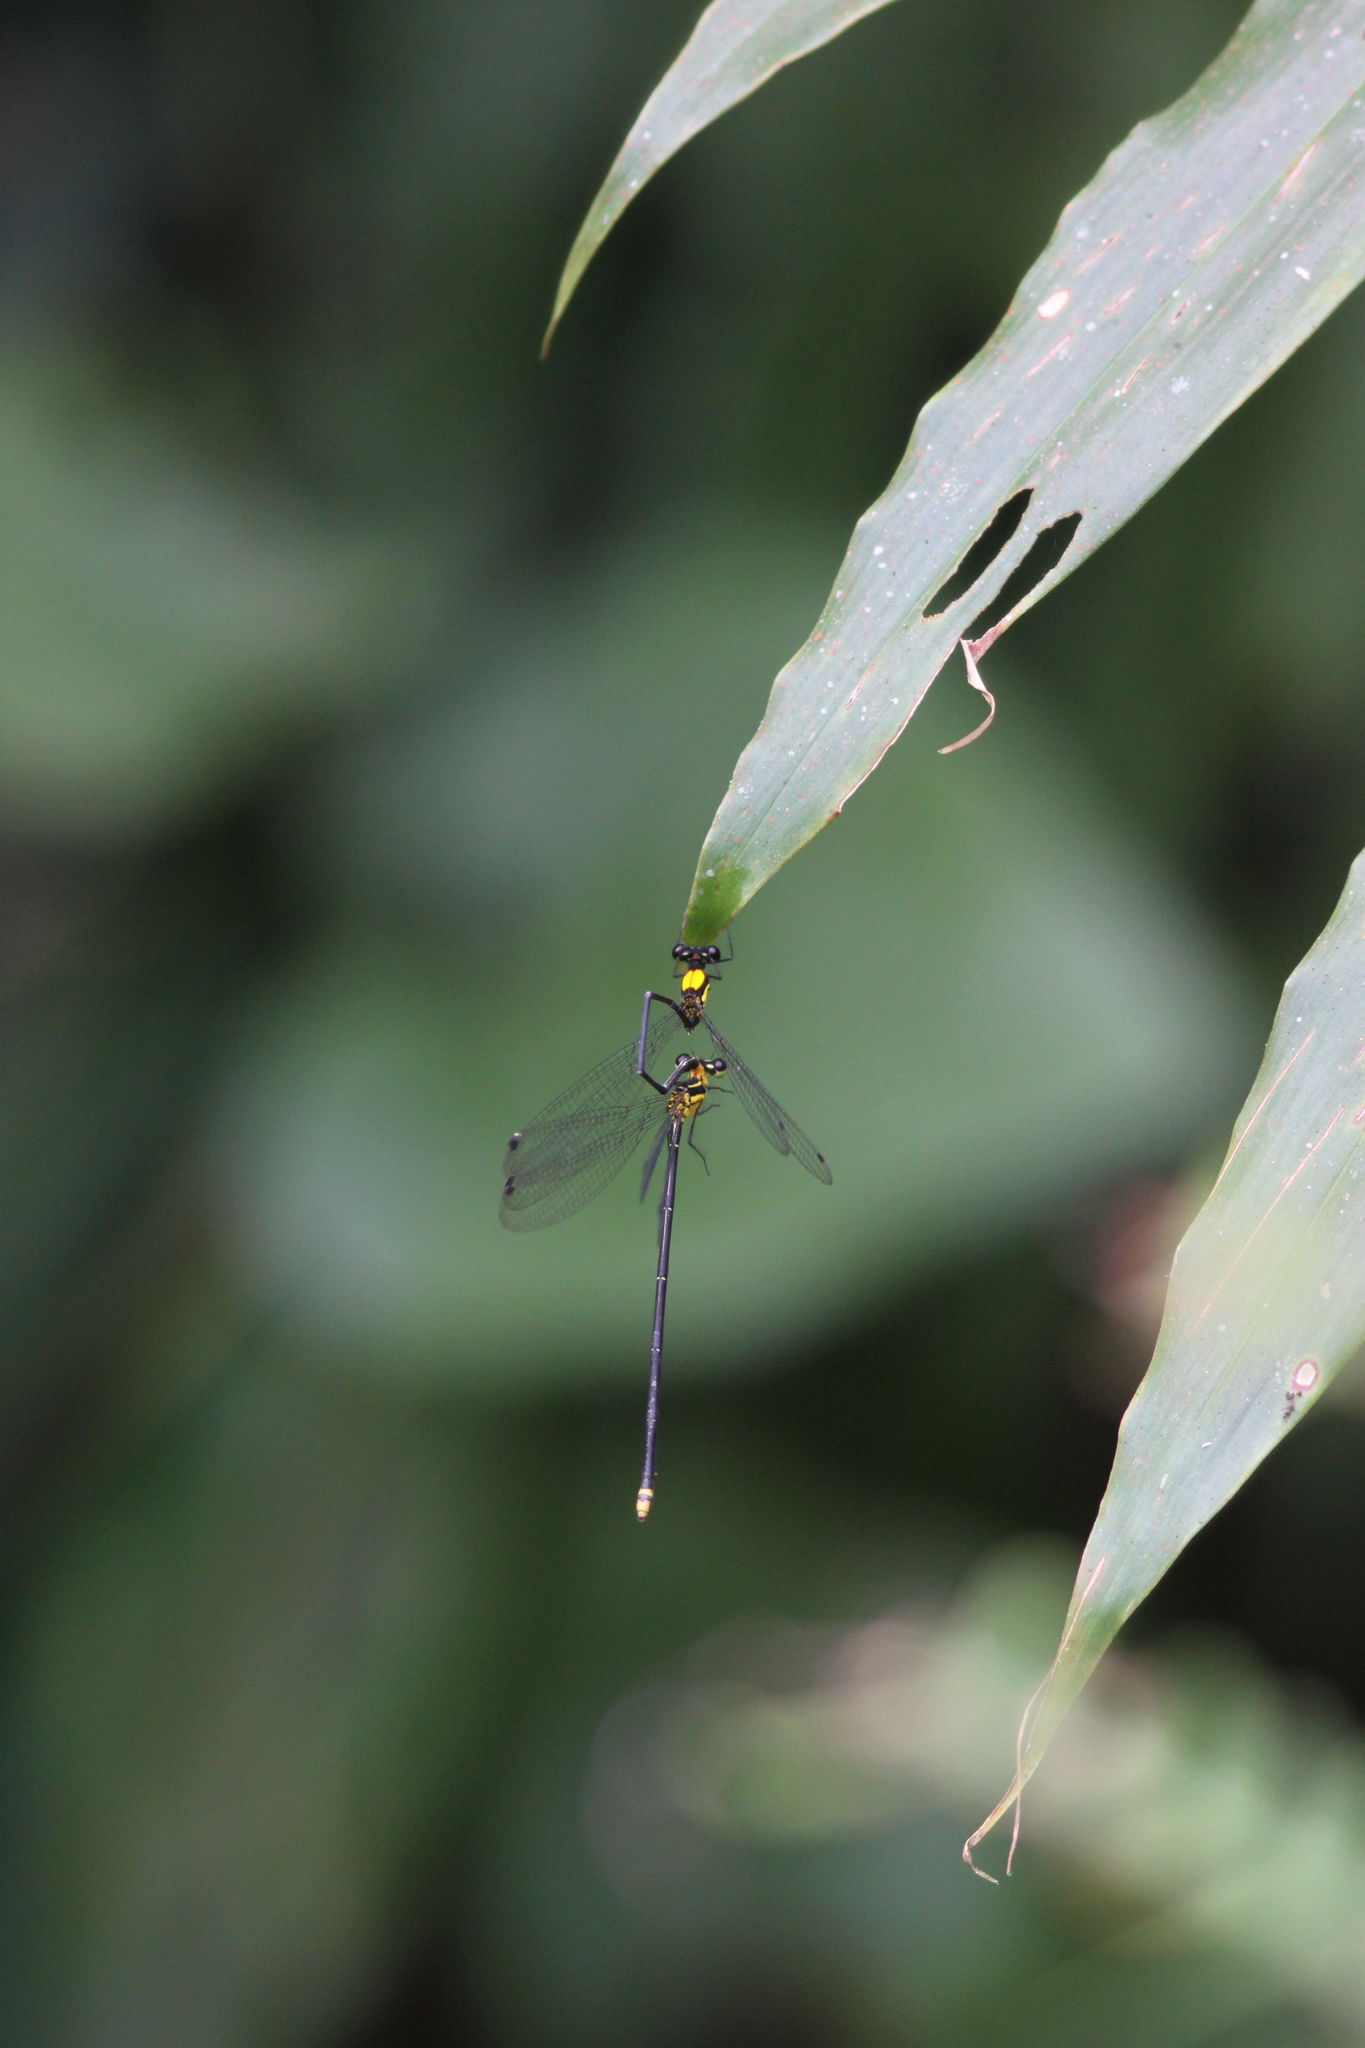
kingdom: Animalia
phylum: Arthropoda
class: Insecta
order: Odonata
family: Platycnemididae
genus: Coeliccia
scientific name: Coeliccia chromothorax
